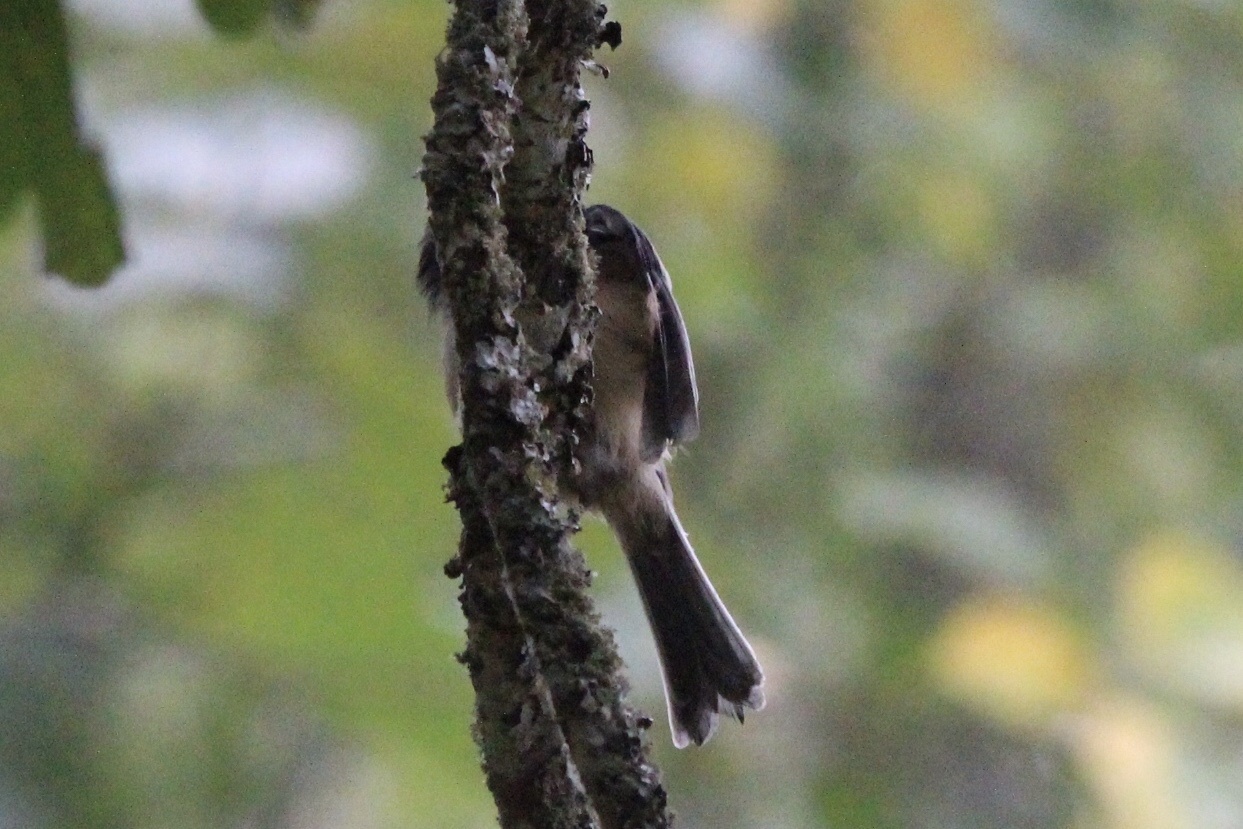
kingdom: Animalia
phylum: Chordata
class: Aves
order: Passeriformes
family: Paridae
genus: Poecile
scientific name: Poecile atricapillus
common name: Black-capped chickadee
